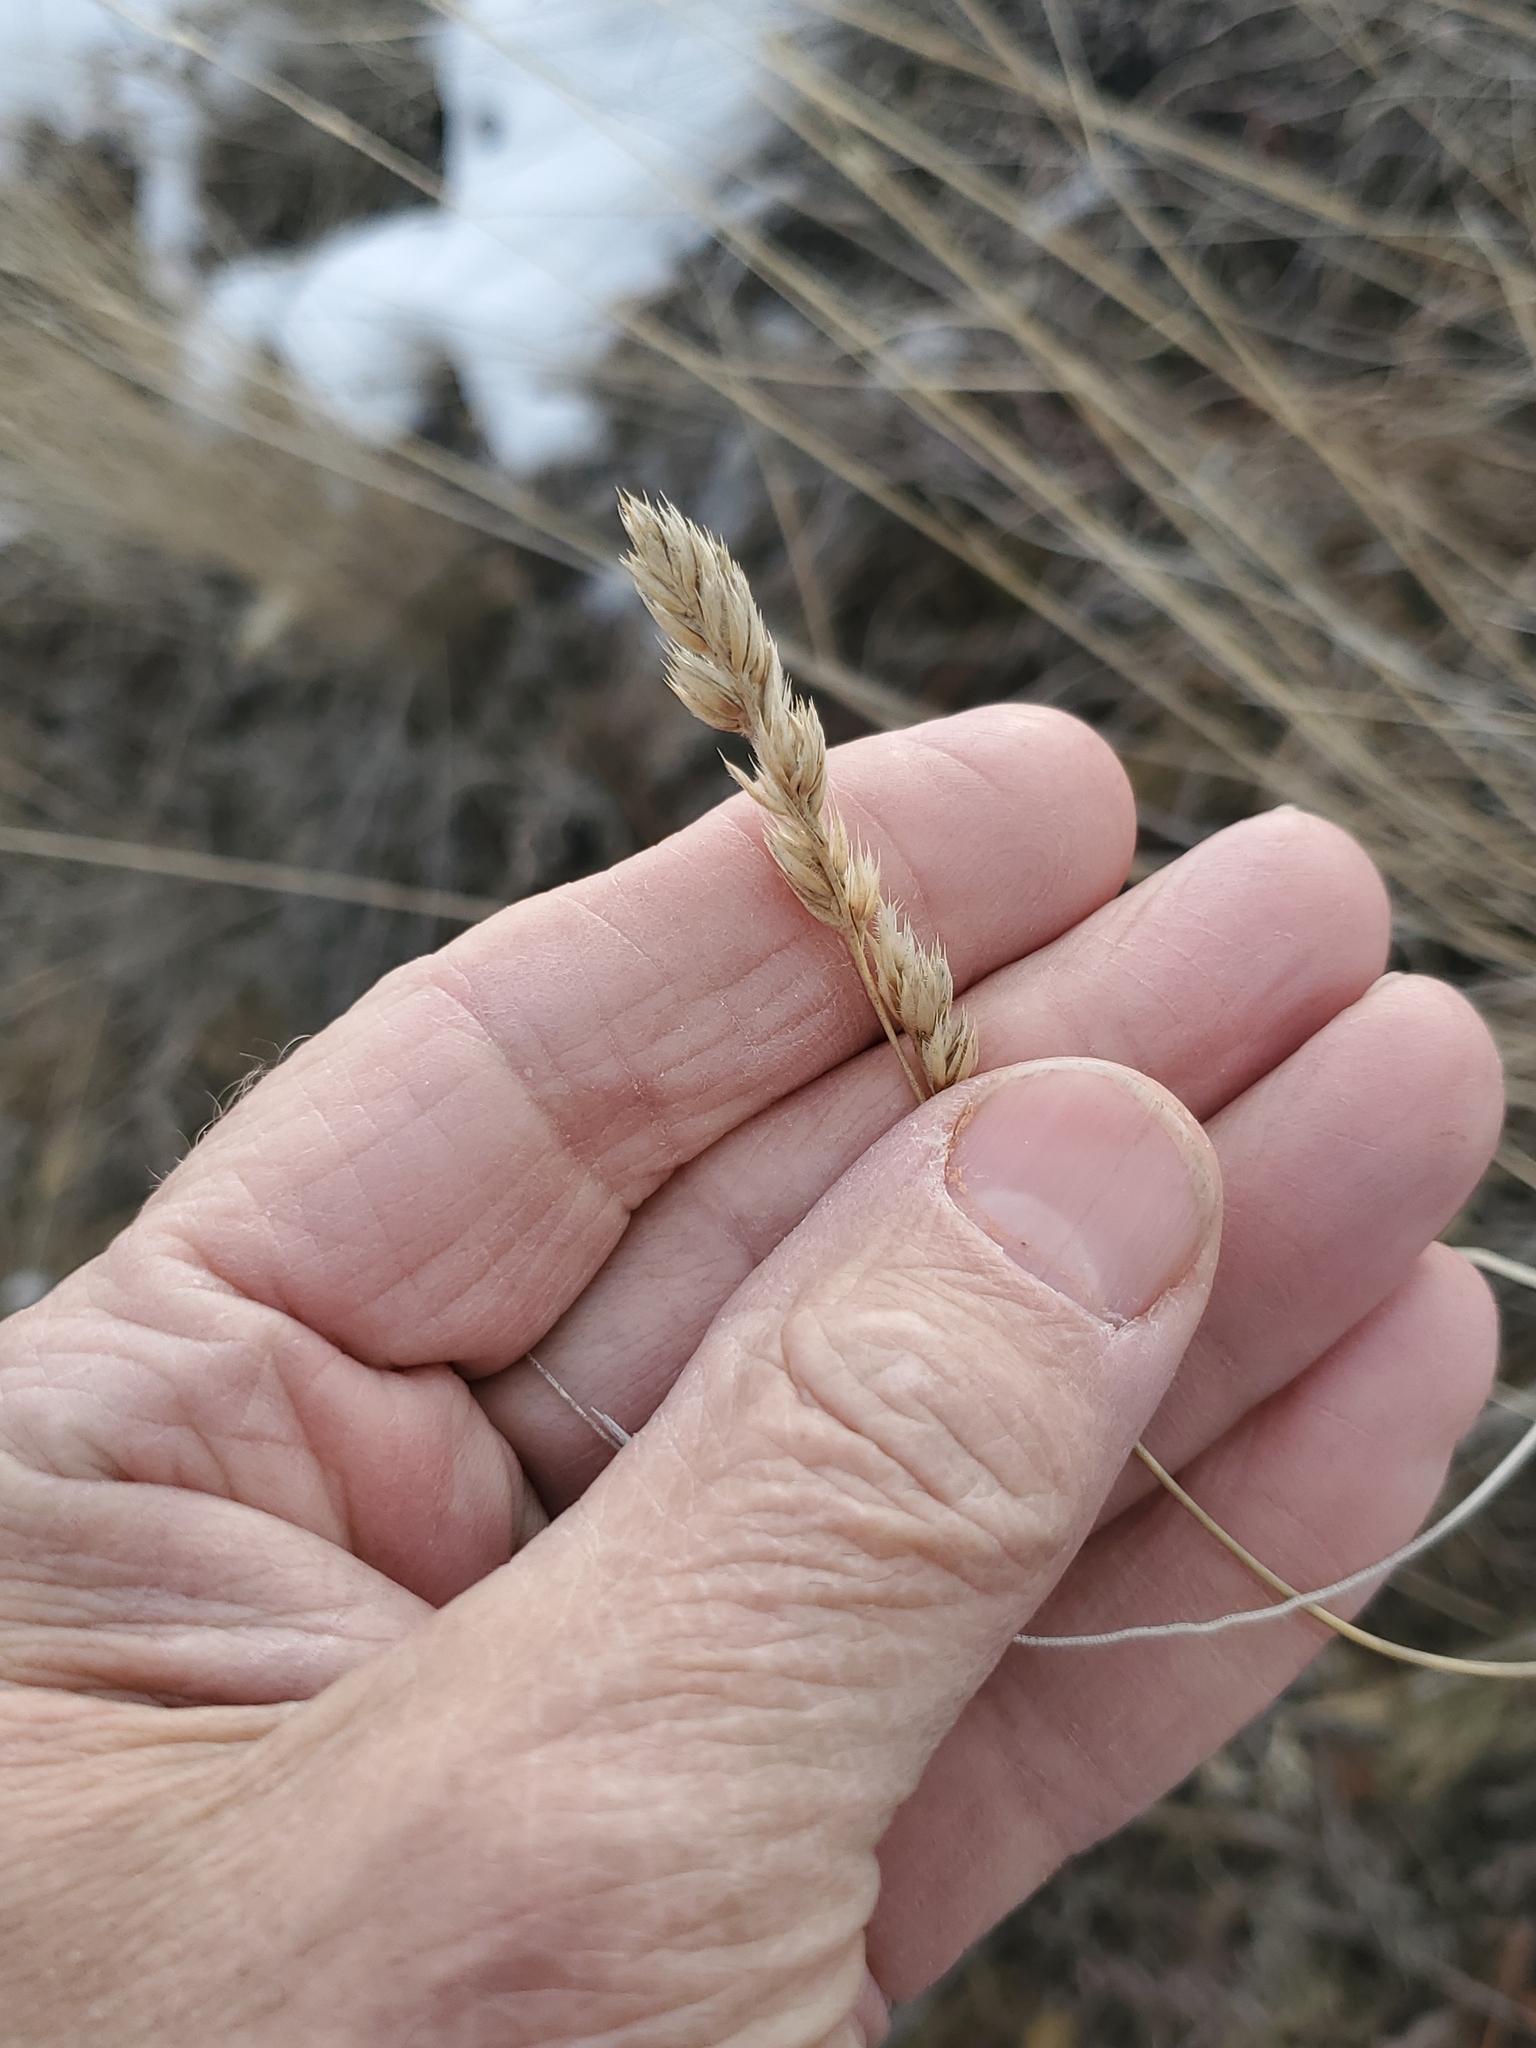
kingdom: Plantae
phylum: Tracheophyta
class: Liliopsida
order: Poales
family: Poaceae
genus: Dactylis
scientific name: Dactylis glomerata
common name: Orchardgrass
